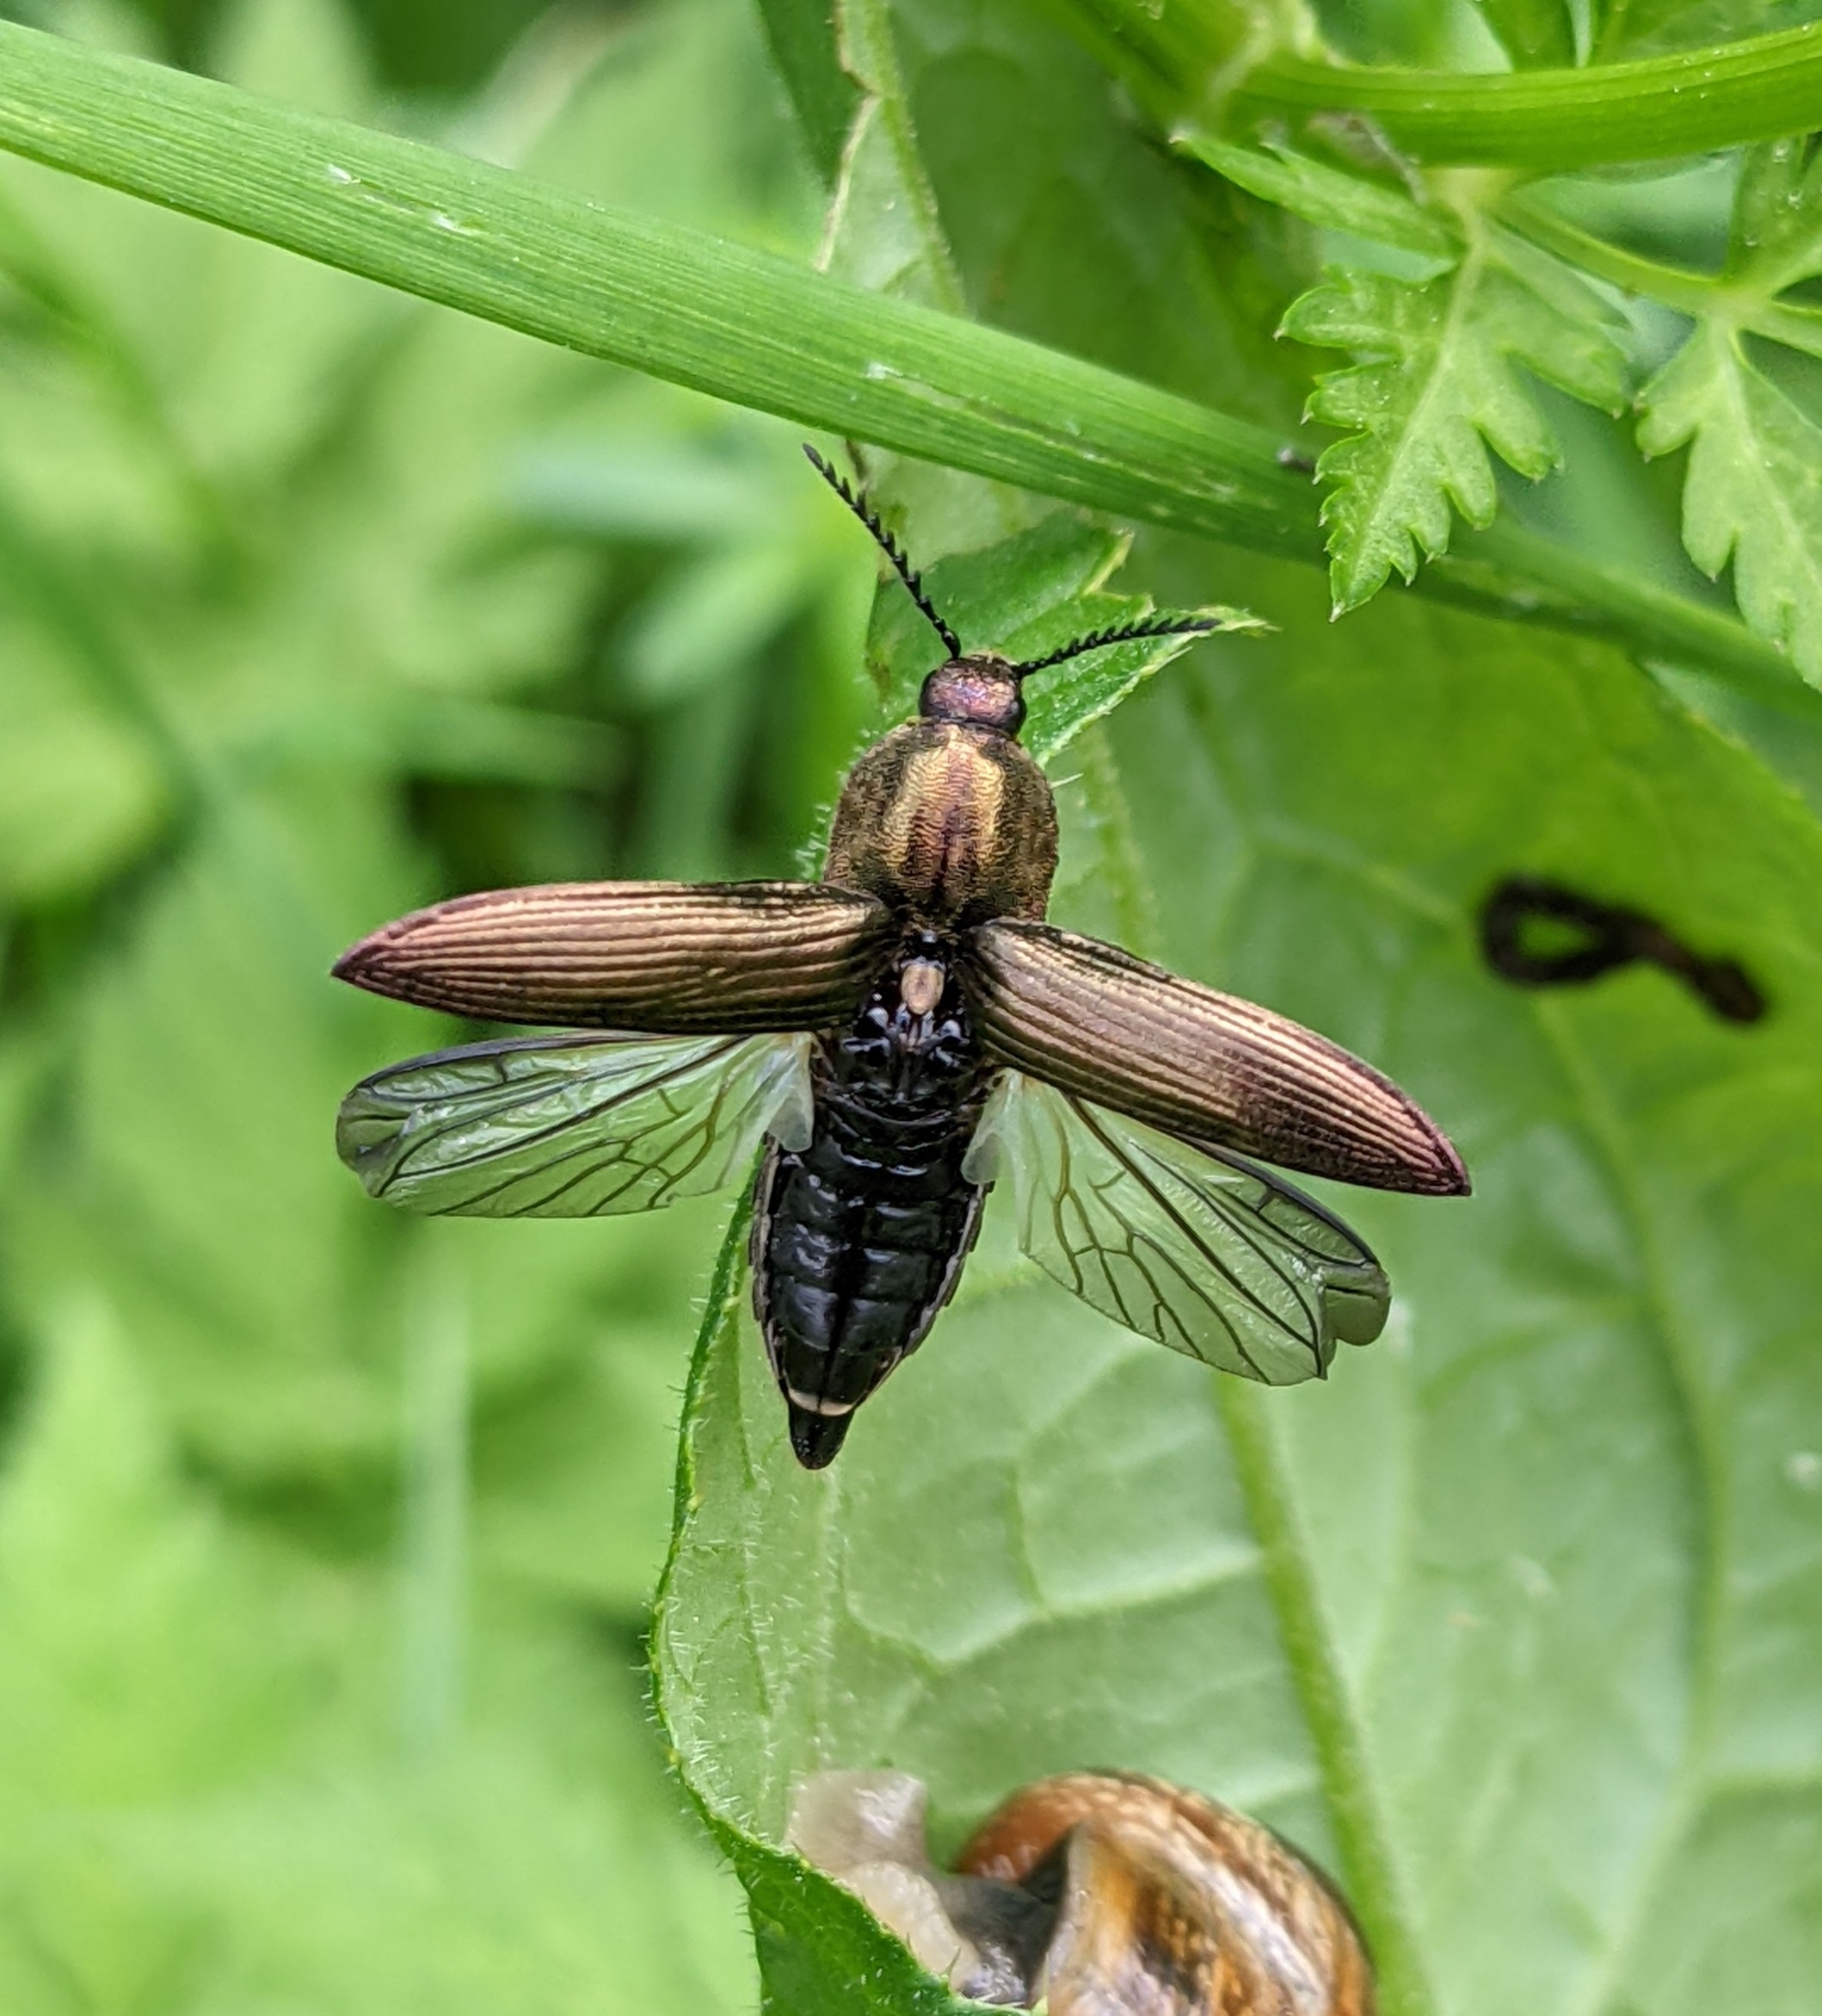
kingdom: Animalia
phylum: Arthropoda
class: Insecta
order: Coleoptera
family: Elateridae
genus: Ctenicera
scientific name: Ctenicera cuprea
